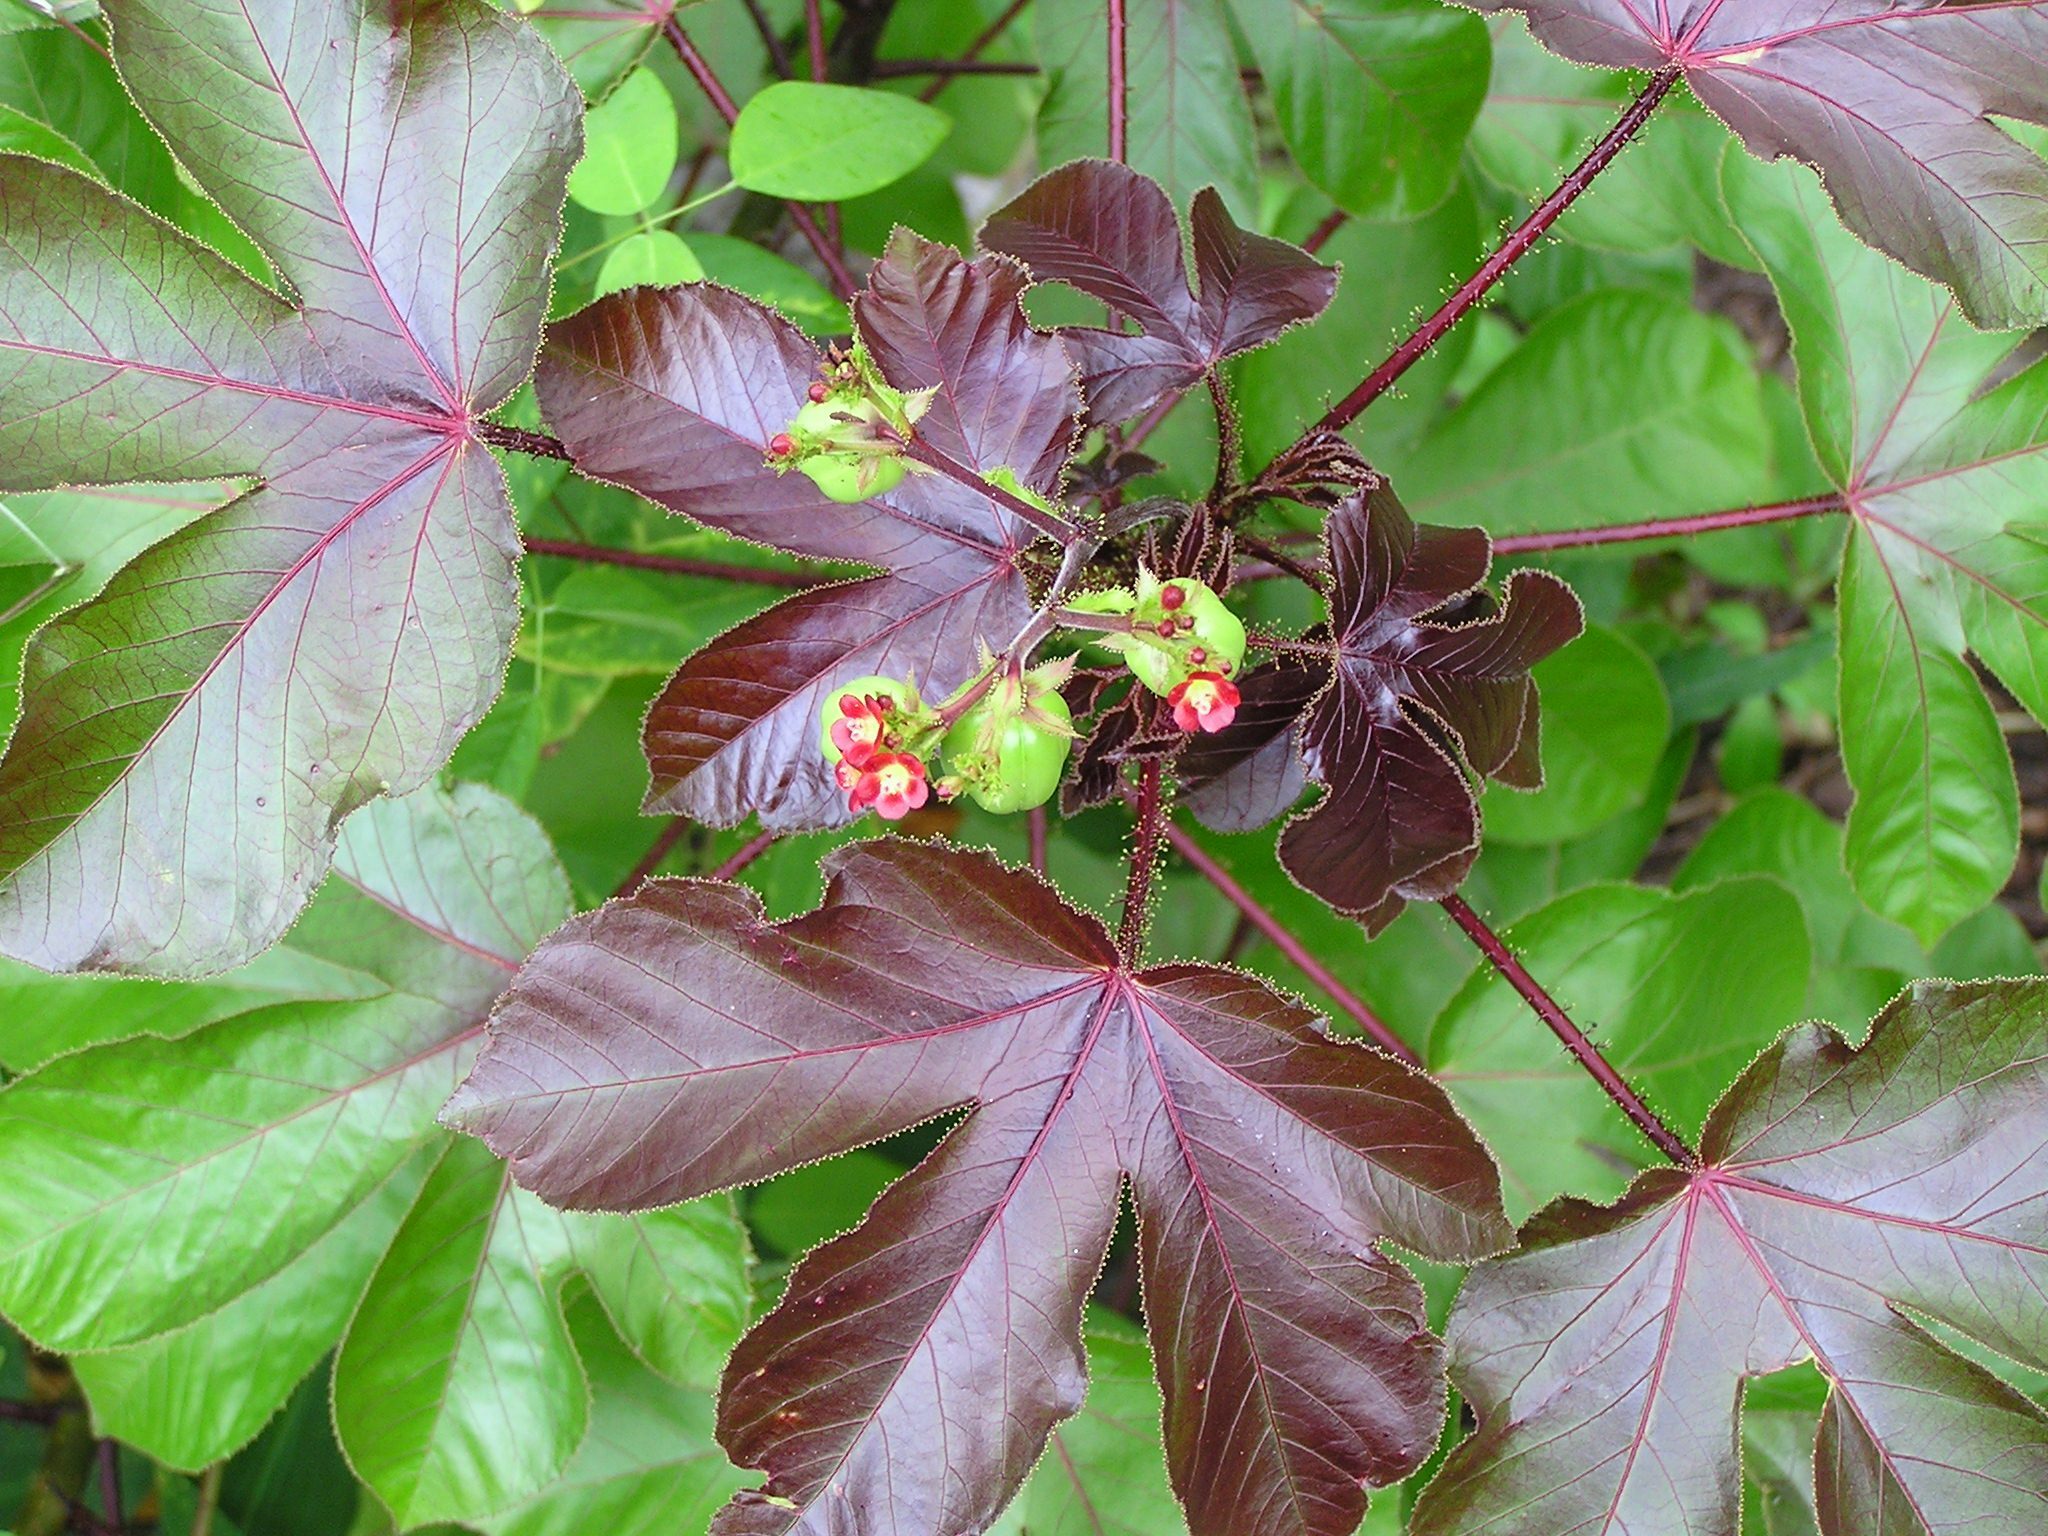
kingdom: Plantae
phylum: Tracheophyta
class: Magnoliopsida
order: Malpighiales
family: Euphorbiaceae
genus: Jatropha
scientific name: Jatropha gossypiifolia
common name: Bellyache bush
